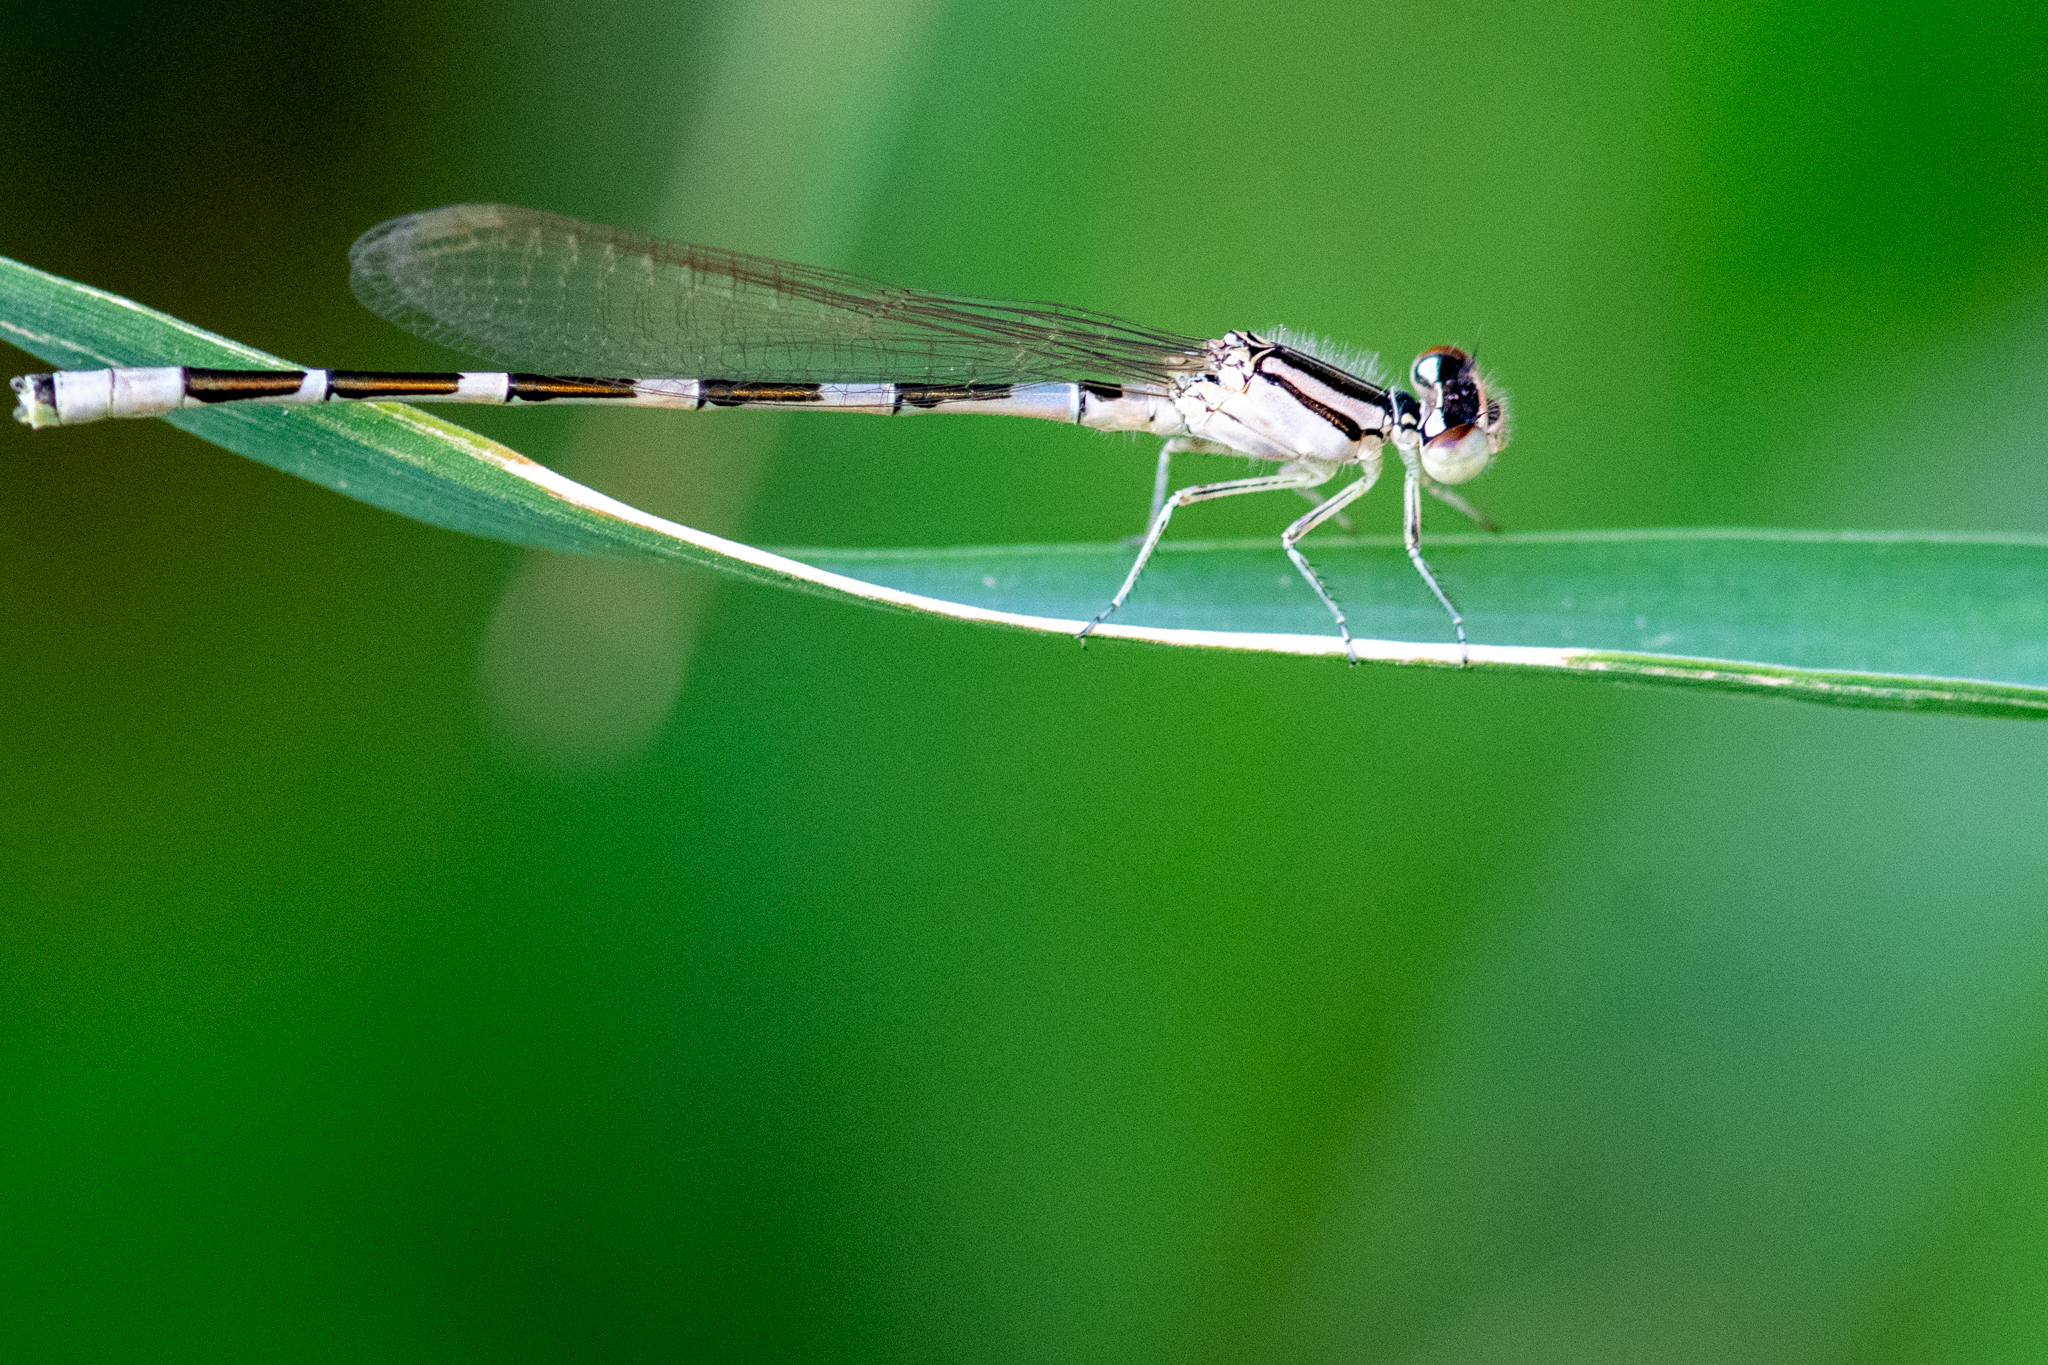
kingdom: Animalia
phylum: Arthropoda
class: Insecta
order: Odonata
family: Coenagrionidae
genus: Enallagma
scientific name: Enallagma carunculatum
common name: Tule bluet
